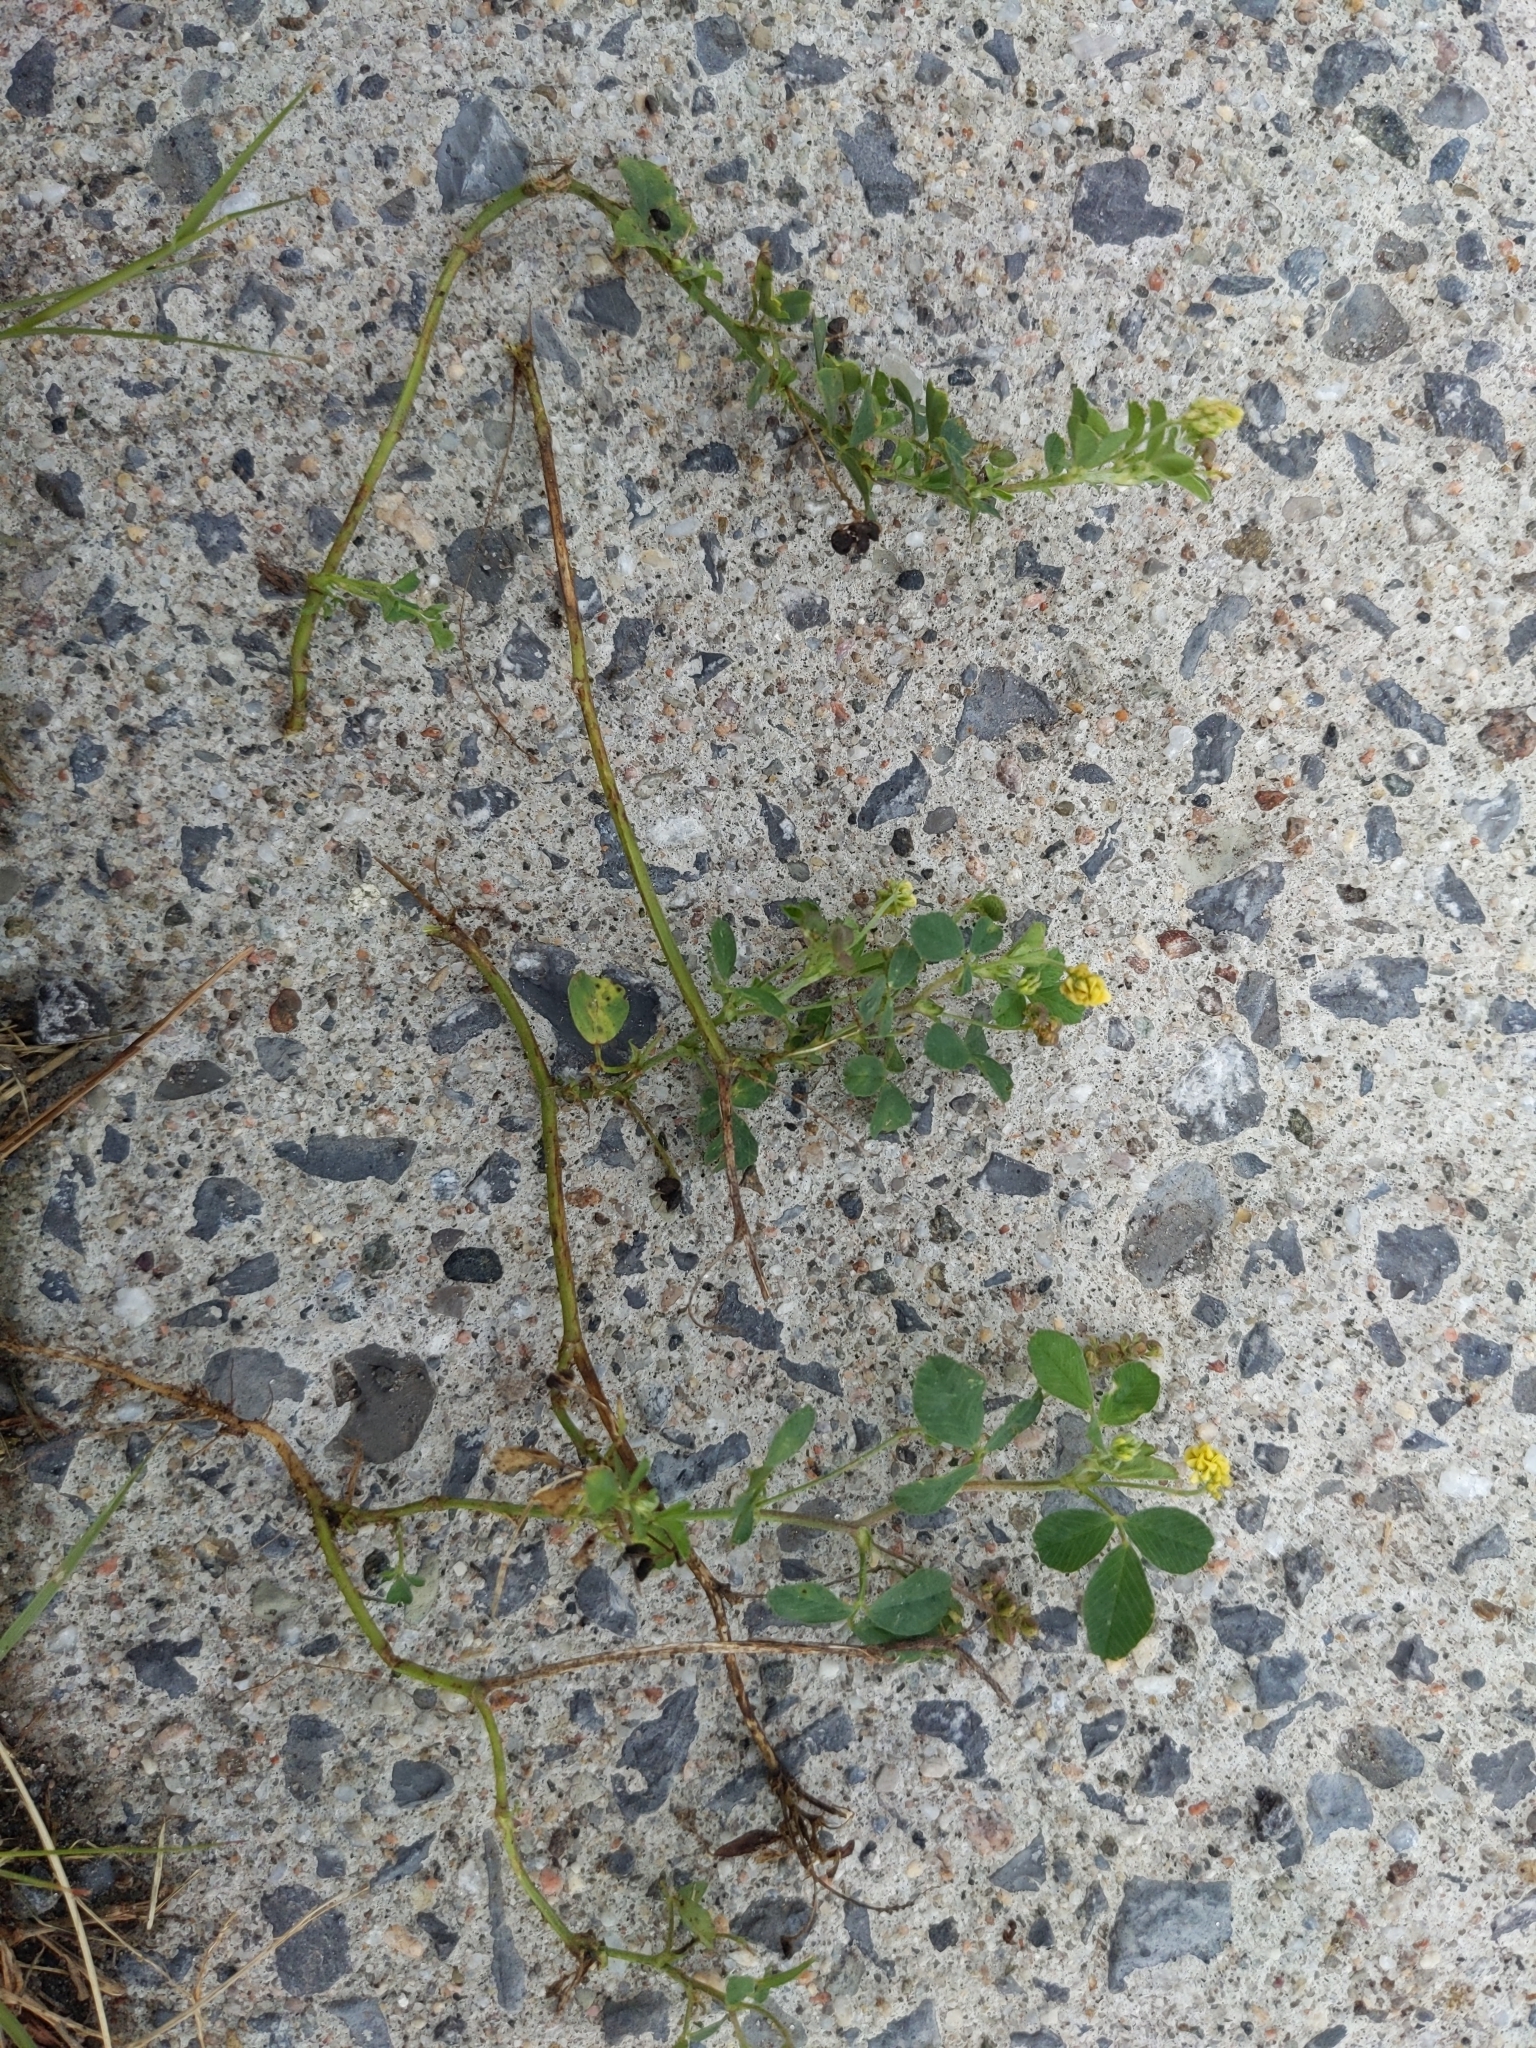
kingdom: Plantae
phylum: Tracheophyta
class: Magnoliopsida
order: Fabales
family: Fabaceae
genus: Medicago
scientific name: Medicago lupulina
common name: Black medick
